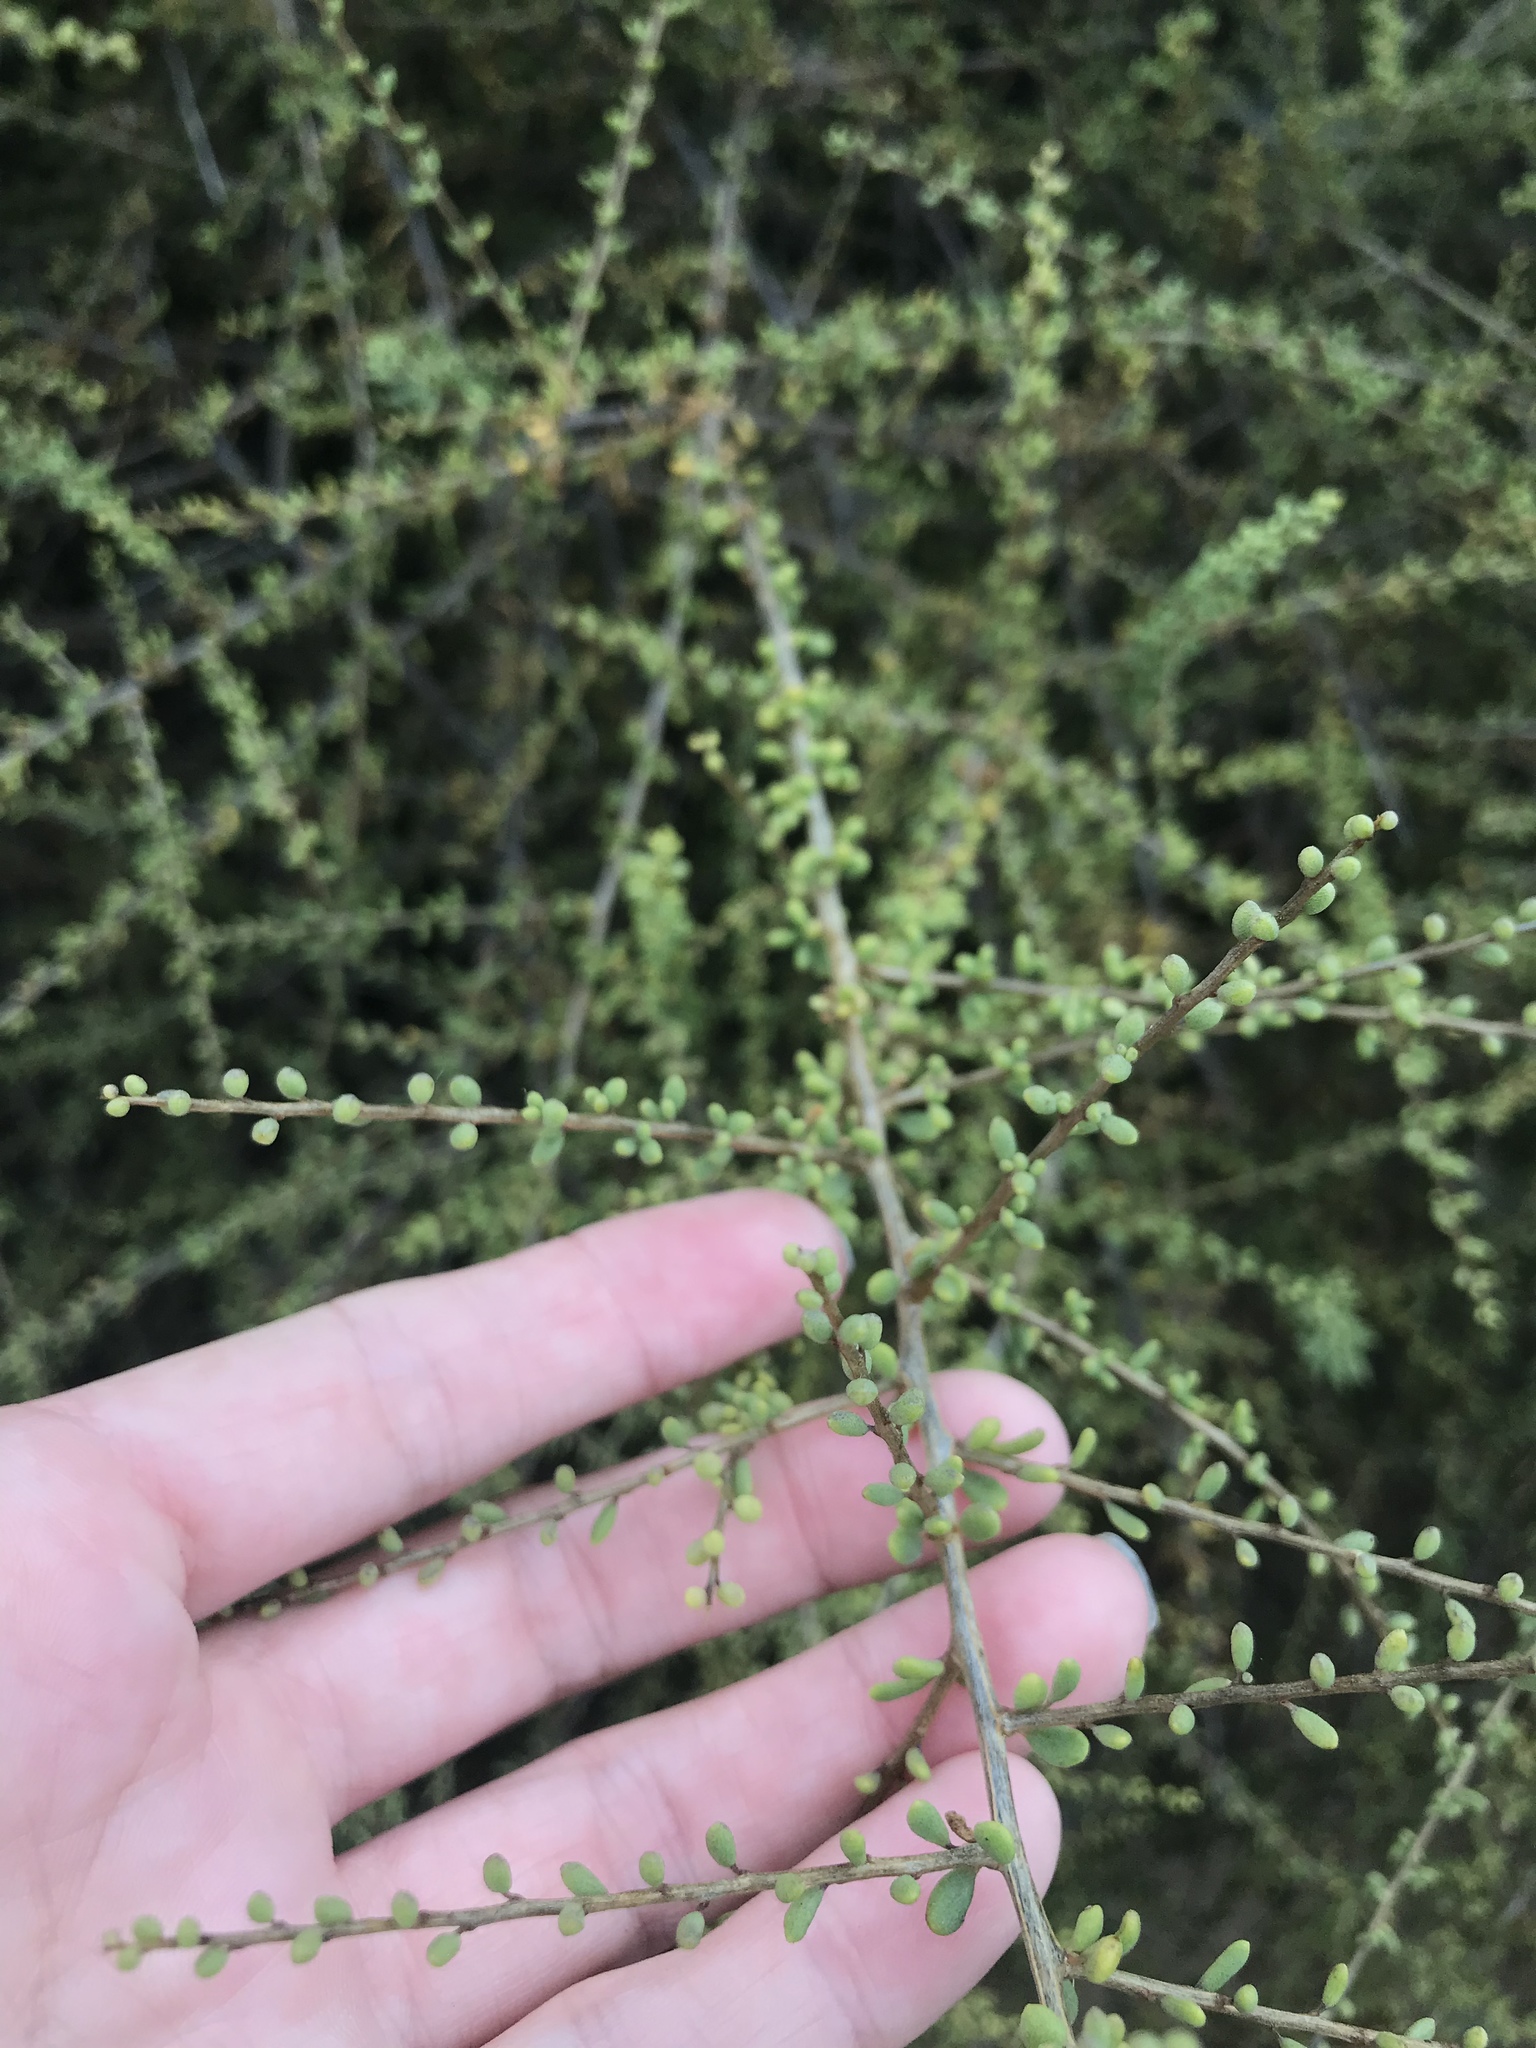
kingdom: Plantae
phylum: Tracheophyta
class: Magnoliopsida
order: Solanales
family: Solanaceae
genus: Lycium
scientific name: Lycium californicum
